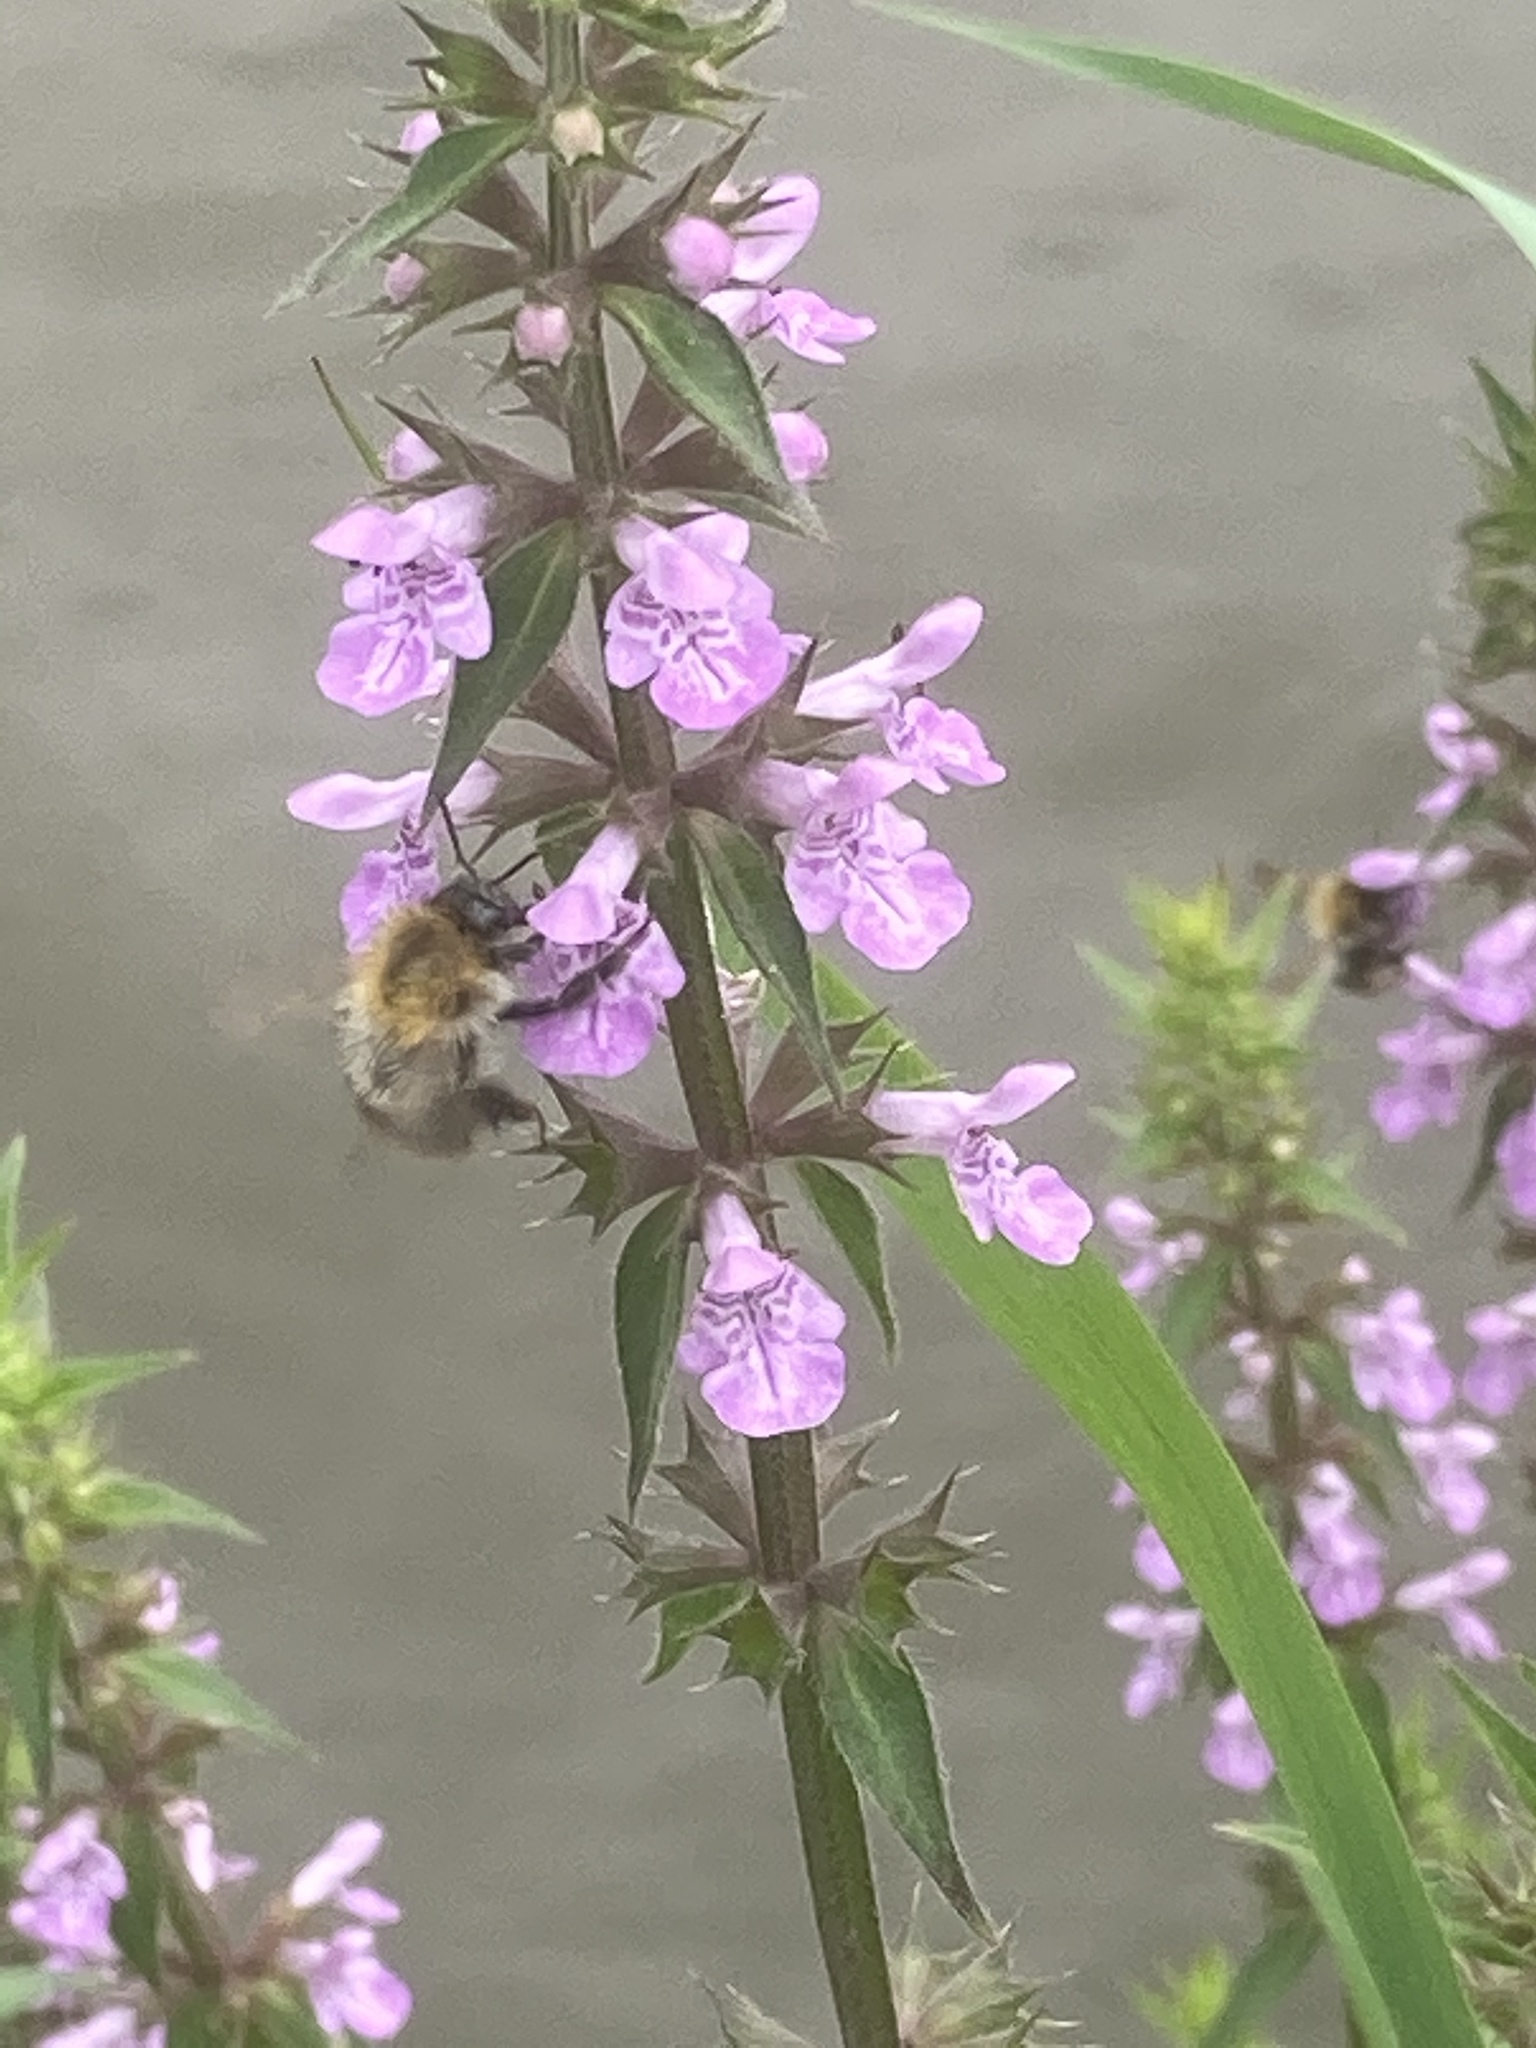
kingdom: Animalia
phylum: Arthropoda
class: Insecta
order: Hymenoptera
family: Apidae
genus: Bombus
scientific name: Bombus pascuorum
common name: Common carder bee
